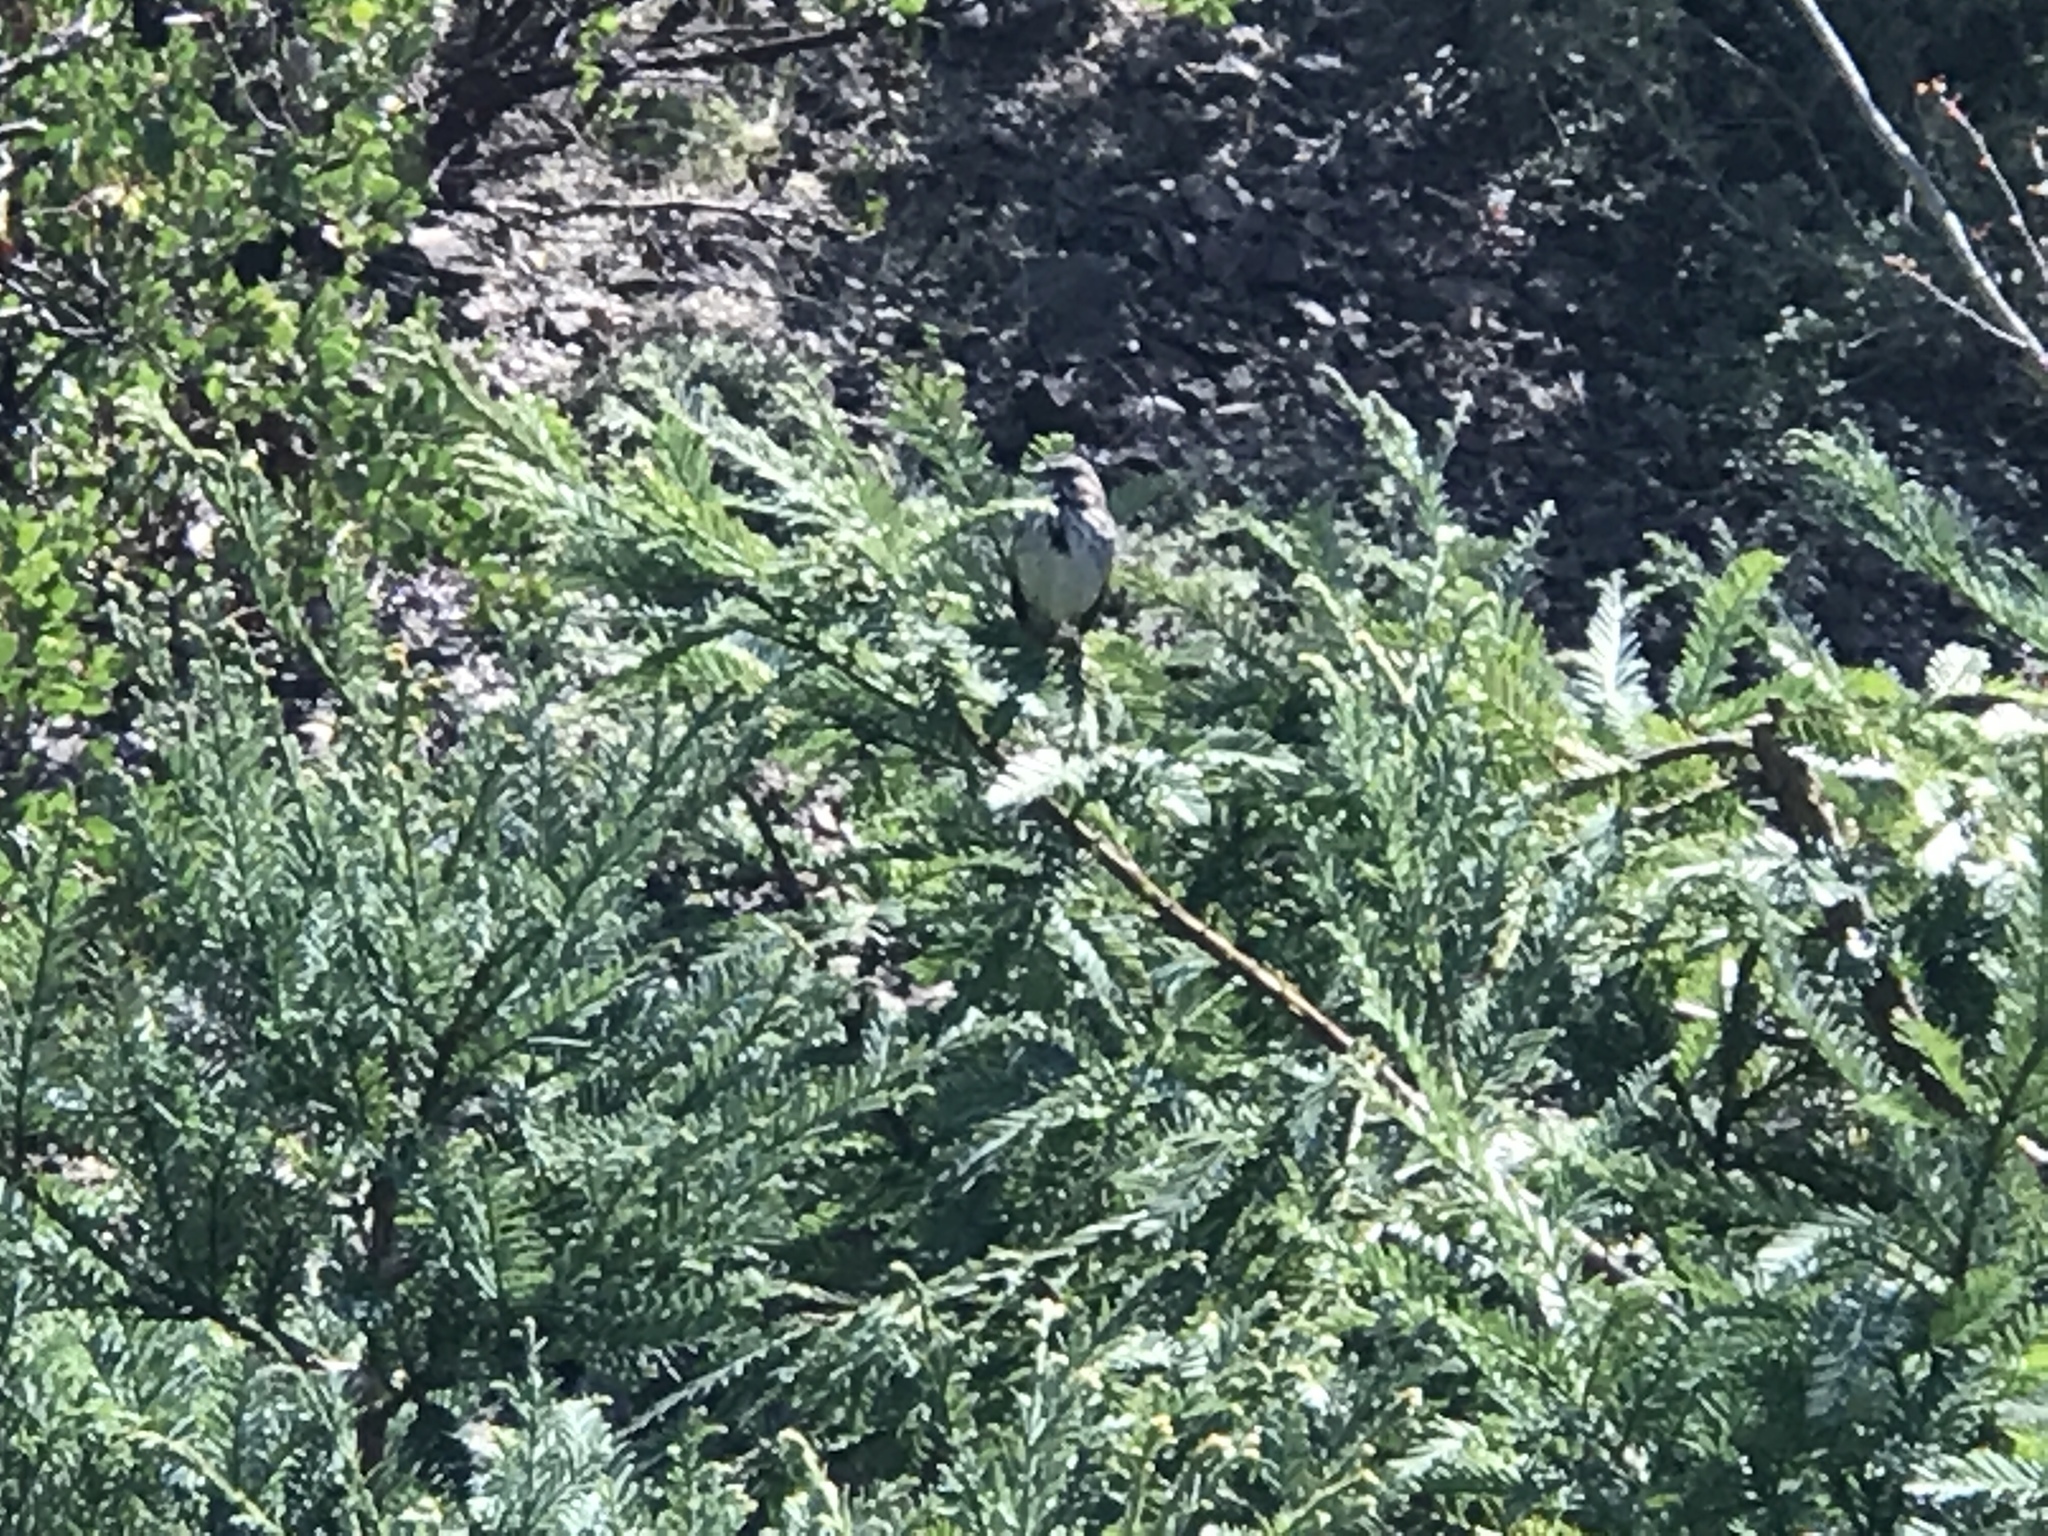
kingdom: Animalia
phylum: Chordata
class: Aves
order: Passeriformes
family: Passerellidae
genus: Melospiza
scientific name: Melospiza melodia
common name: Song sparrow
